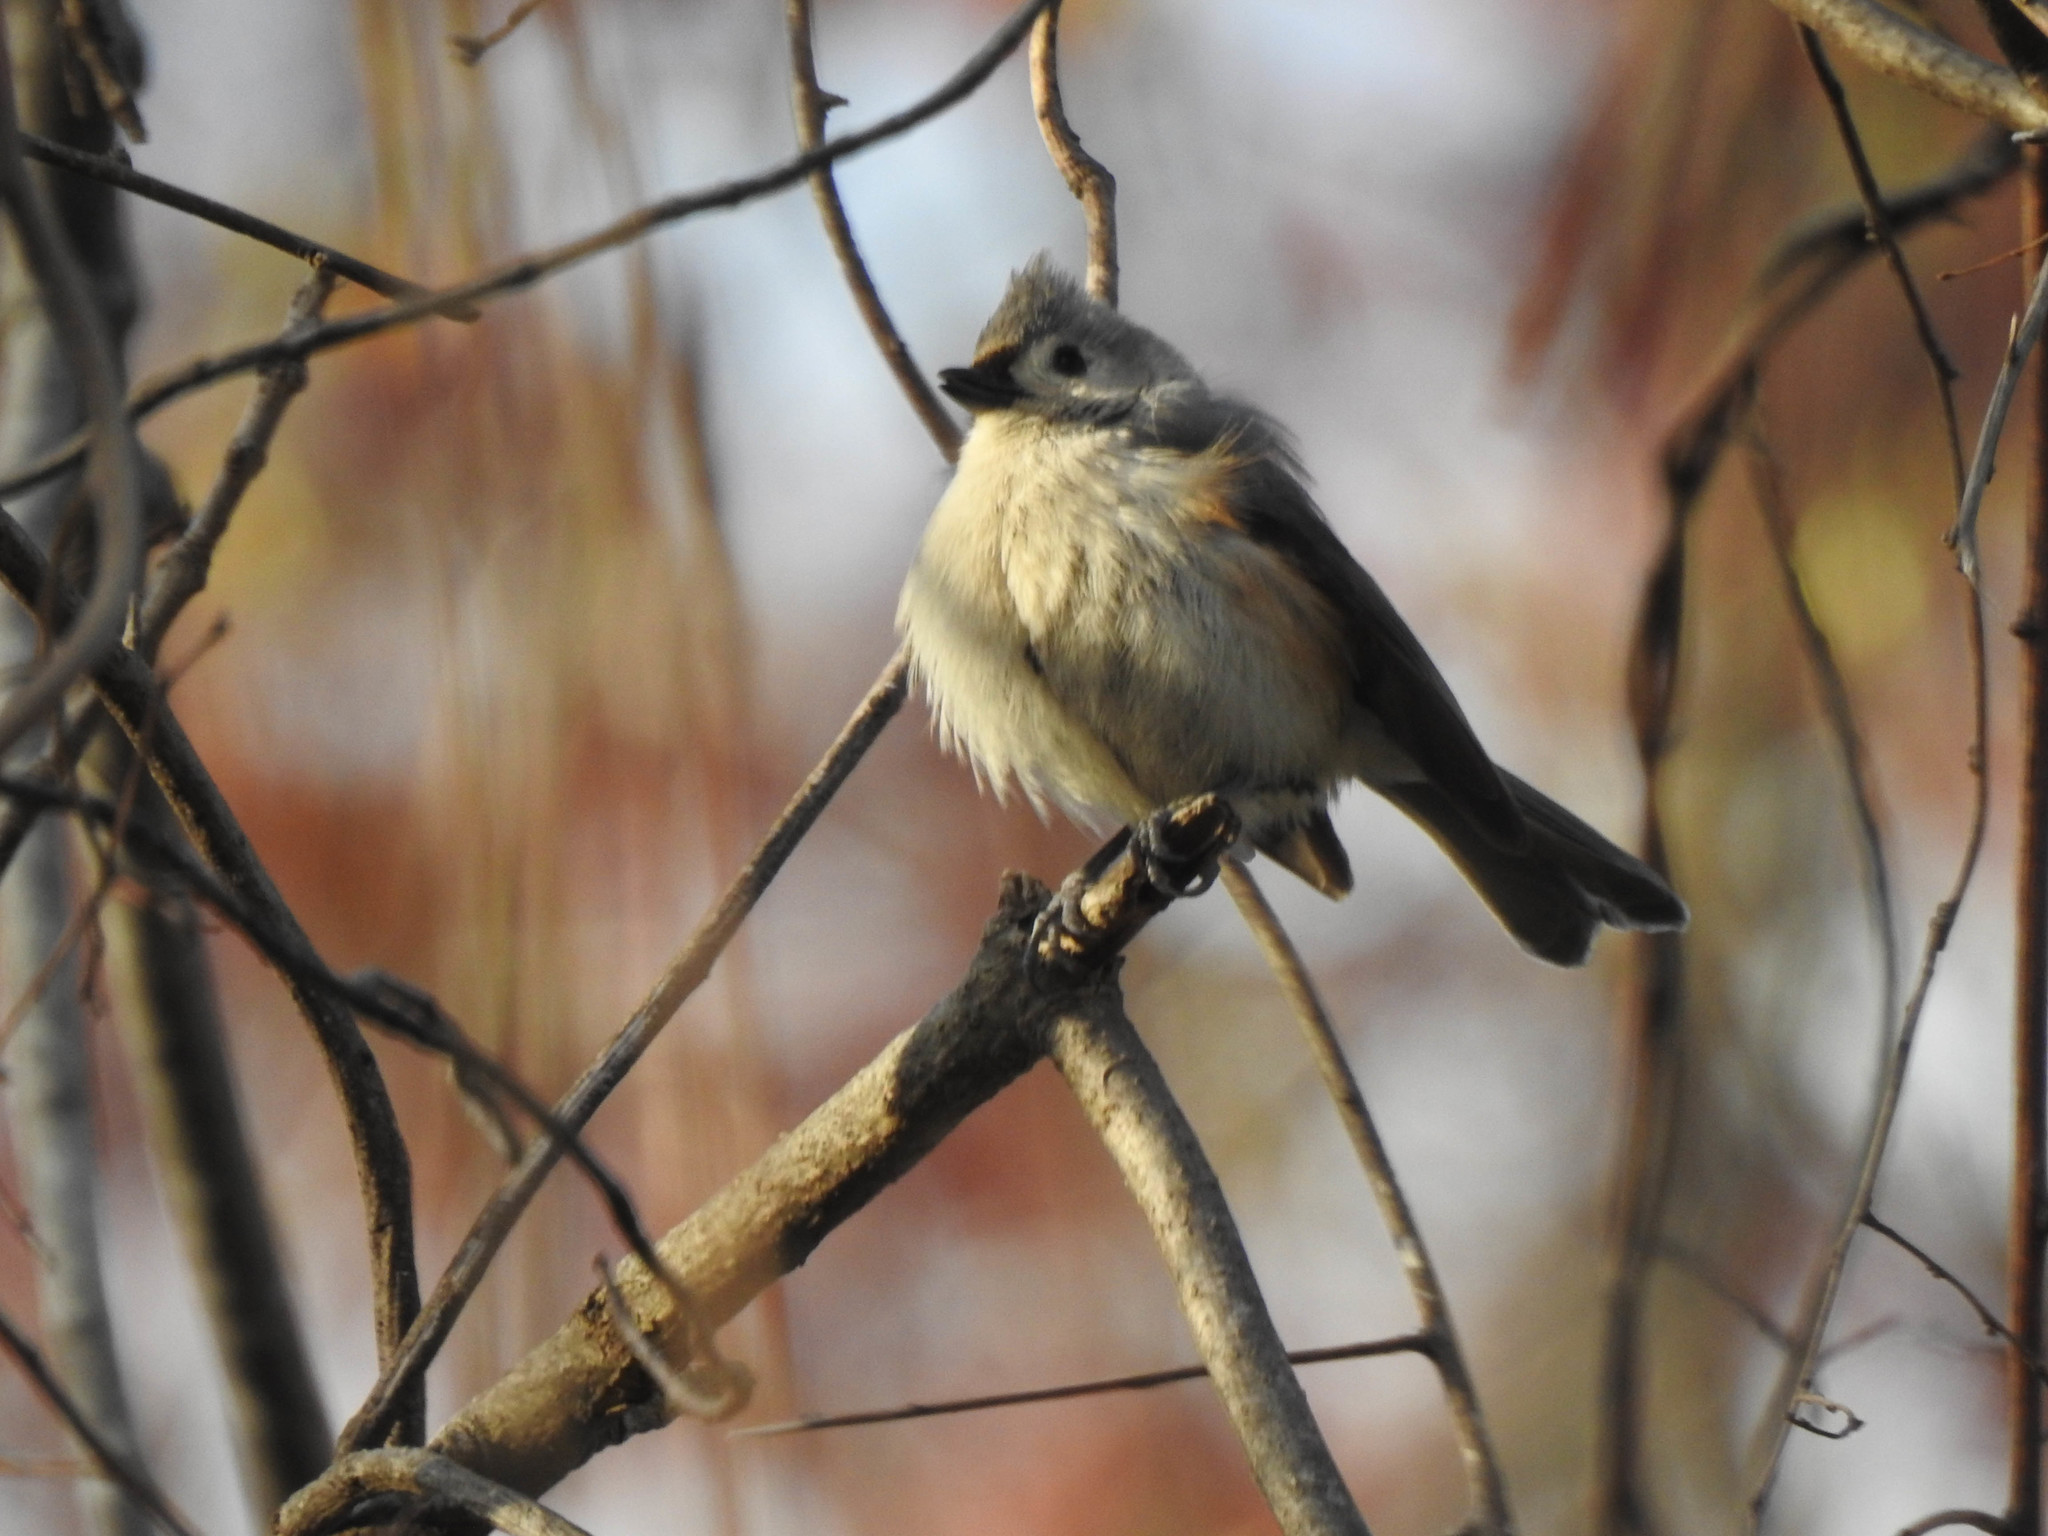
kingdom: Animalia
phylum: Chordata
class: Aves
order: Passeriformes
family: Paridae
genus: Baeolophus
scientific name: Baeolophus bicolor
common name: Tufted titmouse
